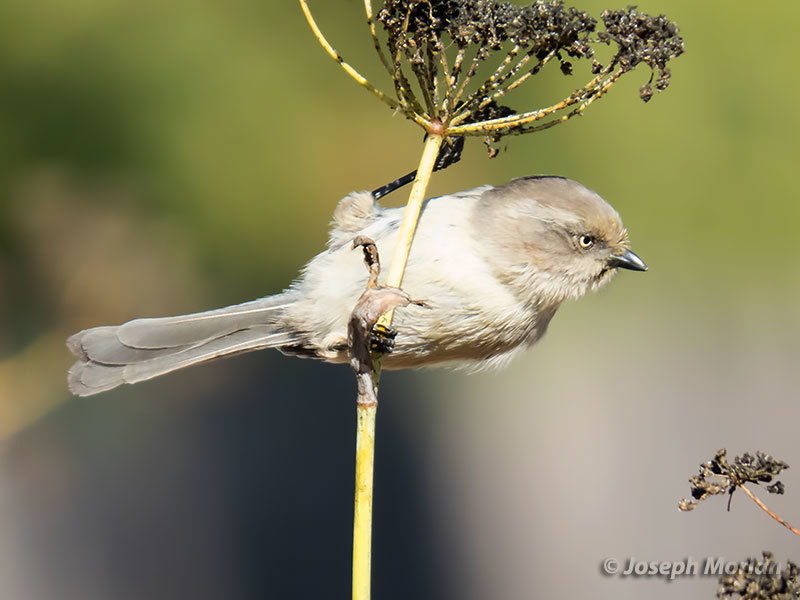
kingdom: Animalia
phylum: Chordata
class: Aves
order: Passeriformes
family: Aegithalidae
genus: Psaltriparus
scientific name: Psaltriparus minimus
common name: American bushtit
